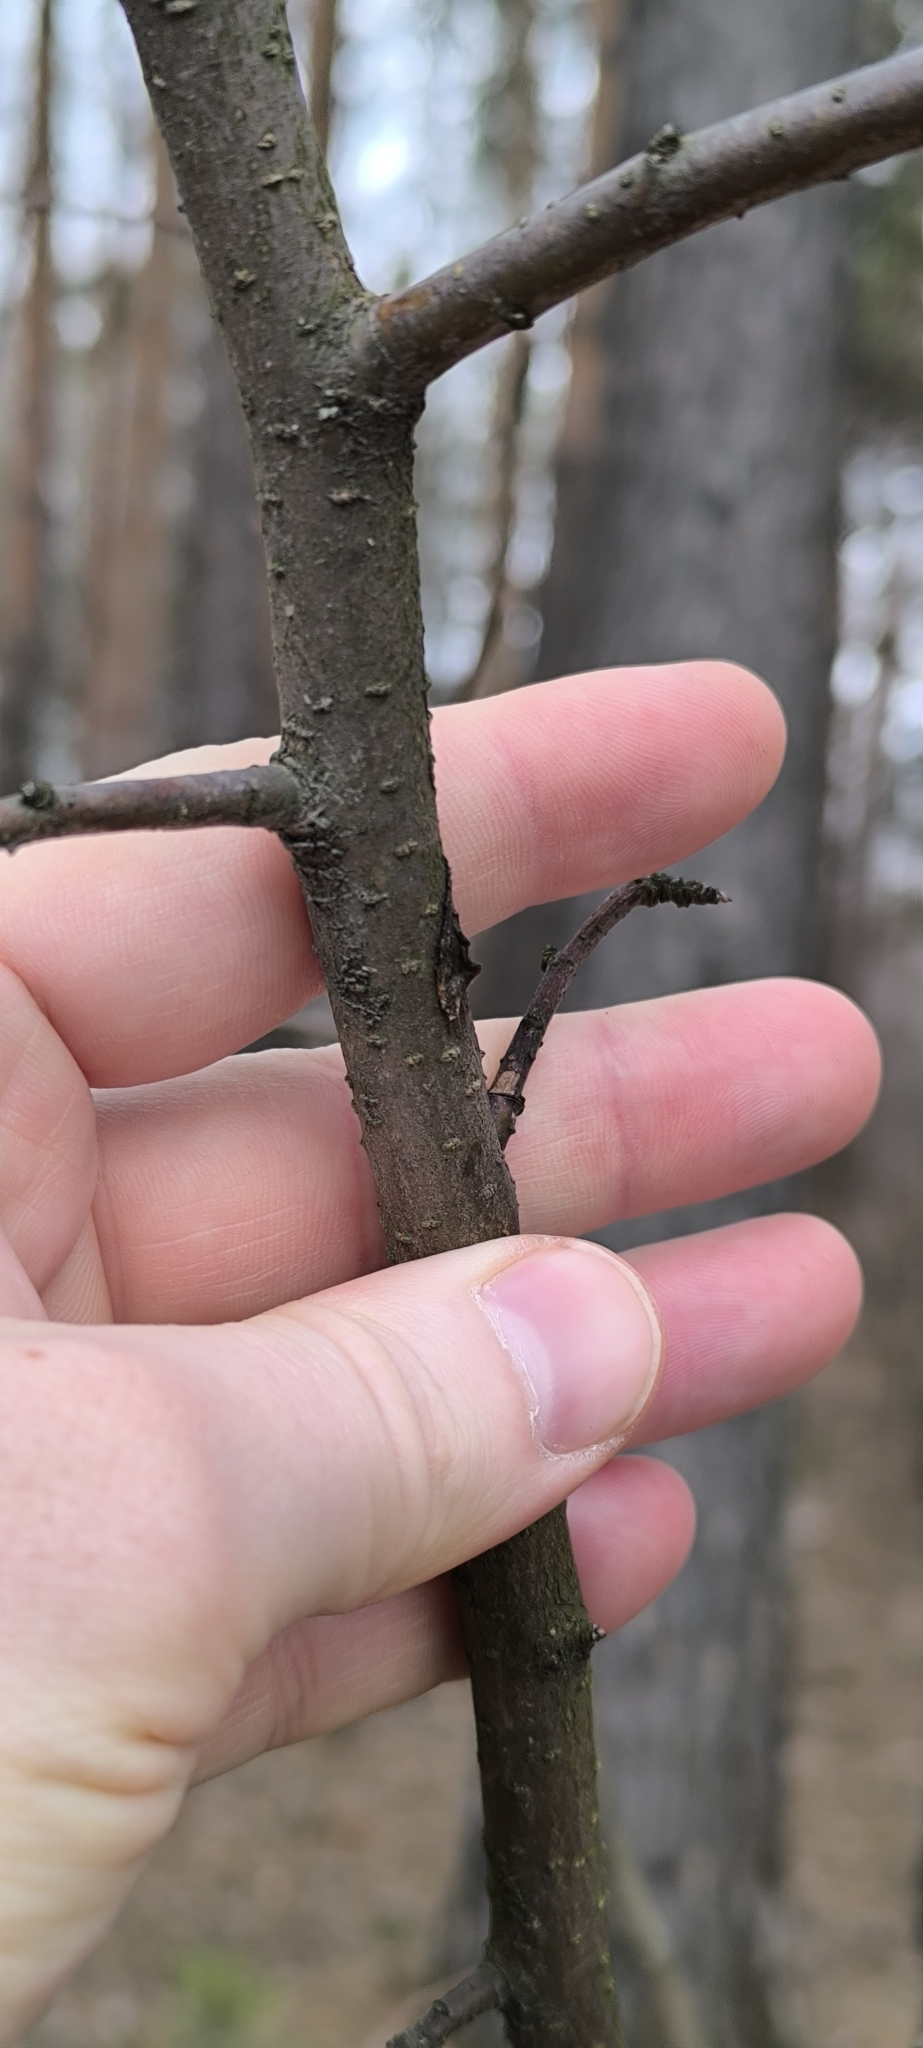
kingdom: Plantae
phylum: Tracheophyta
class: Magnoliopsida
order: Rosales
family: Rosaceae
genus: Malus
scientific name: Malus prunifolia
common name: Chinese apple
